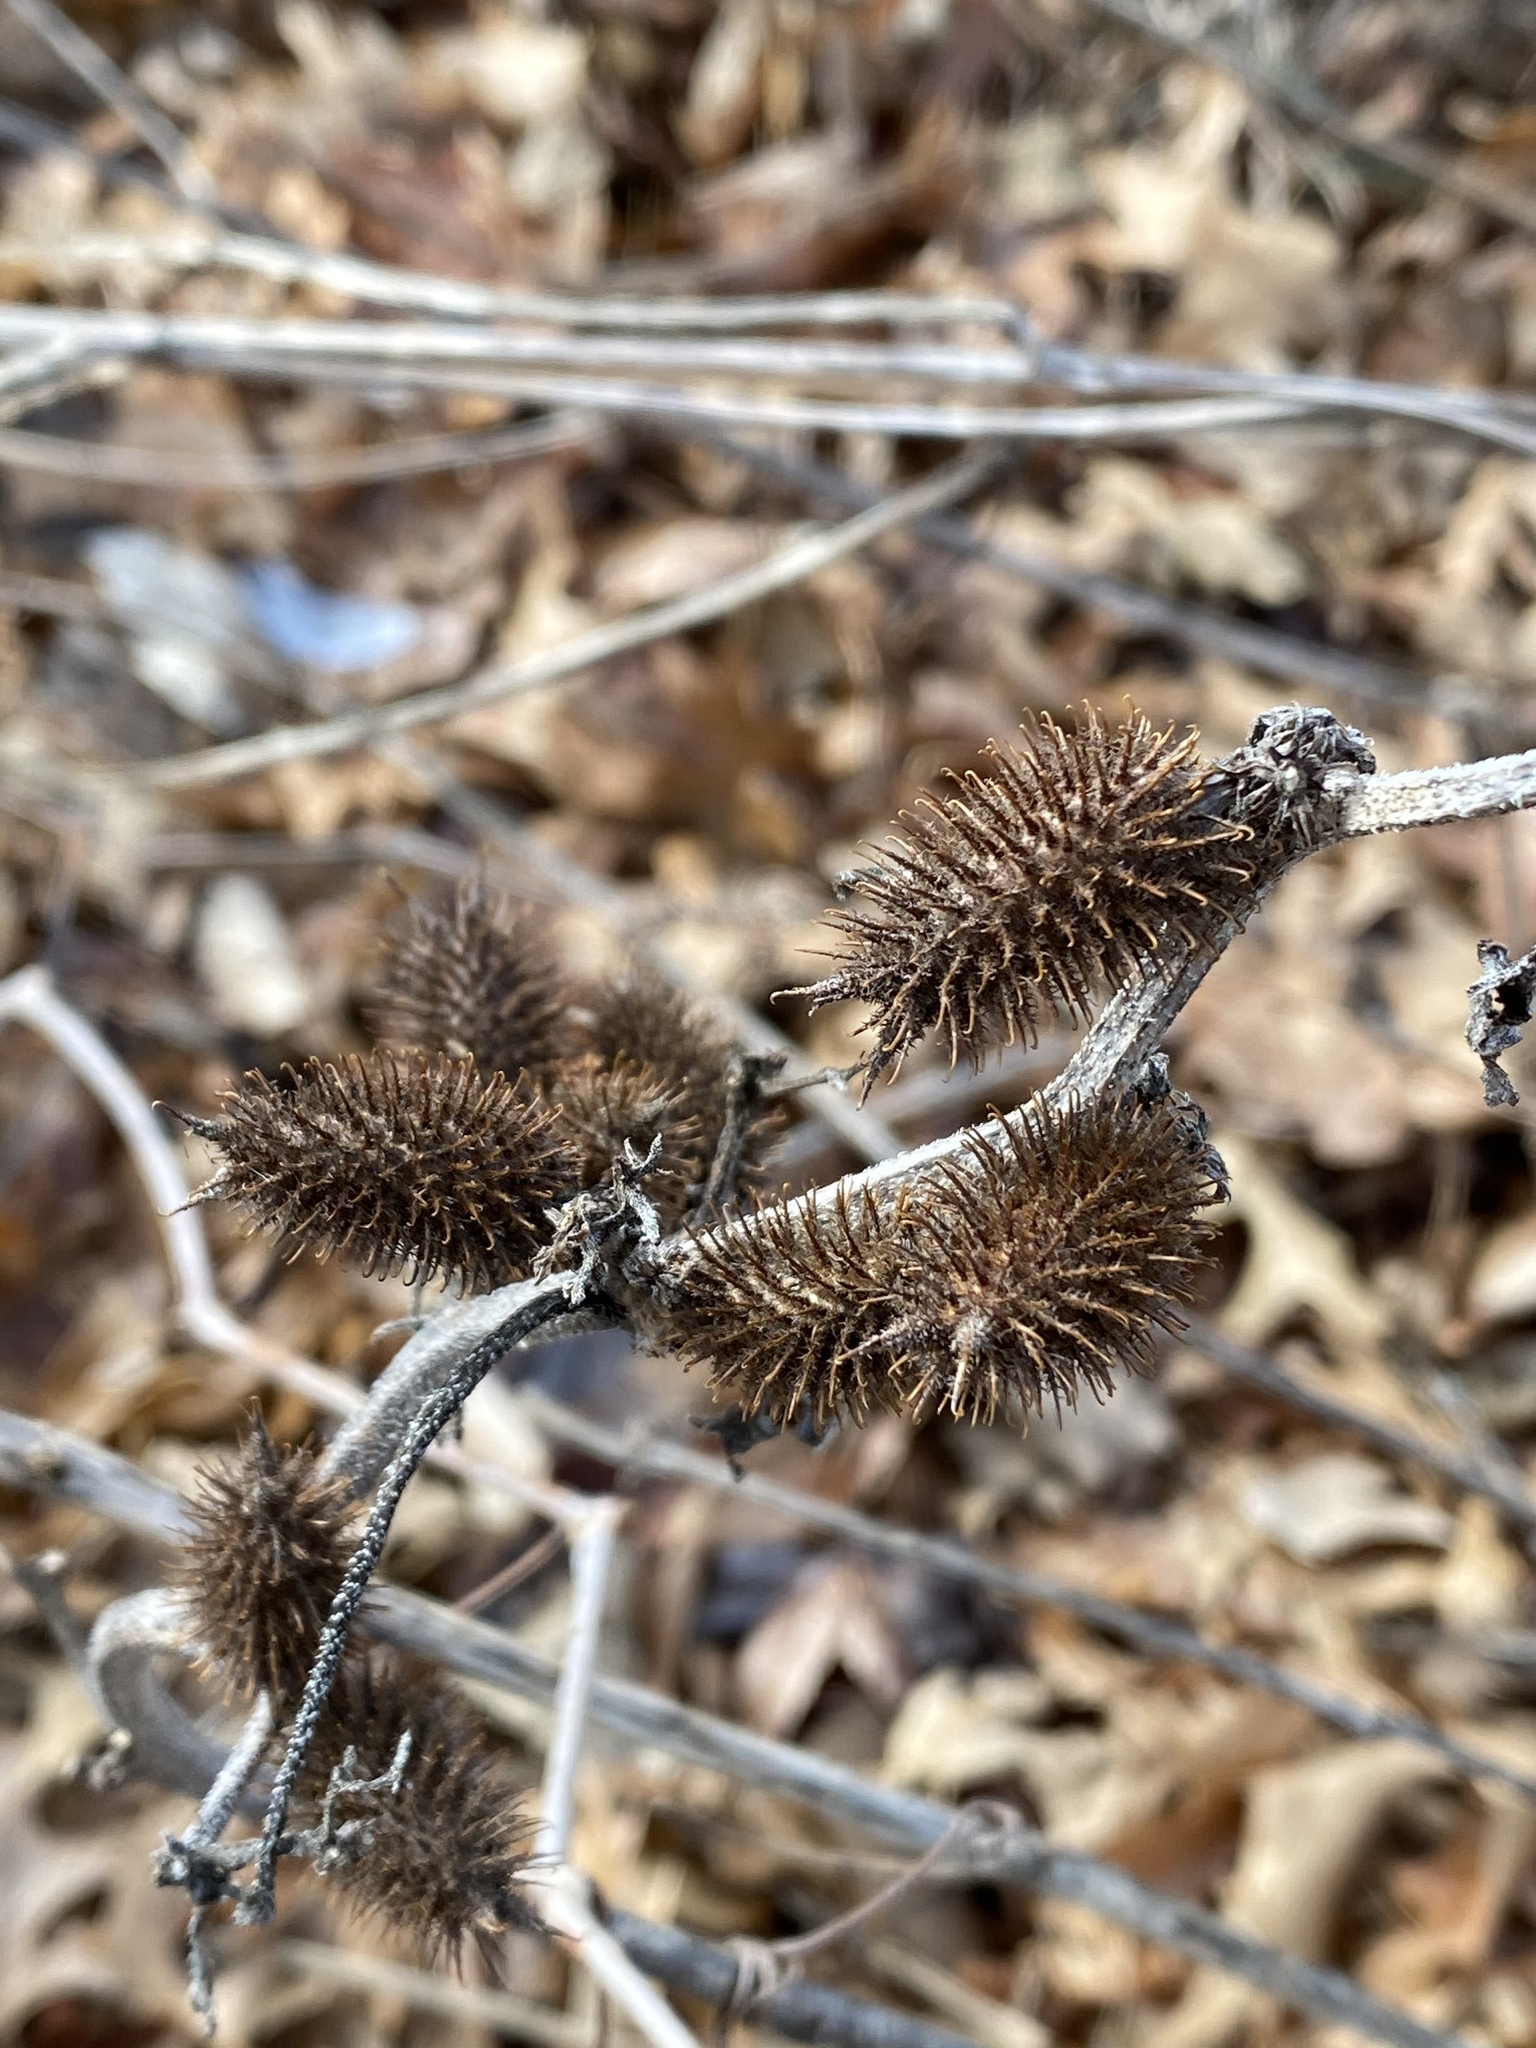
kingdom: Plantae
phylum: Tracheophyta
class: Magnoliopsida
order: Asterales
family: Asteraceae
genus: Xanthium
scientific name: Xanthium strumarium
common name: Rough cocklebur
